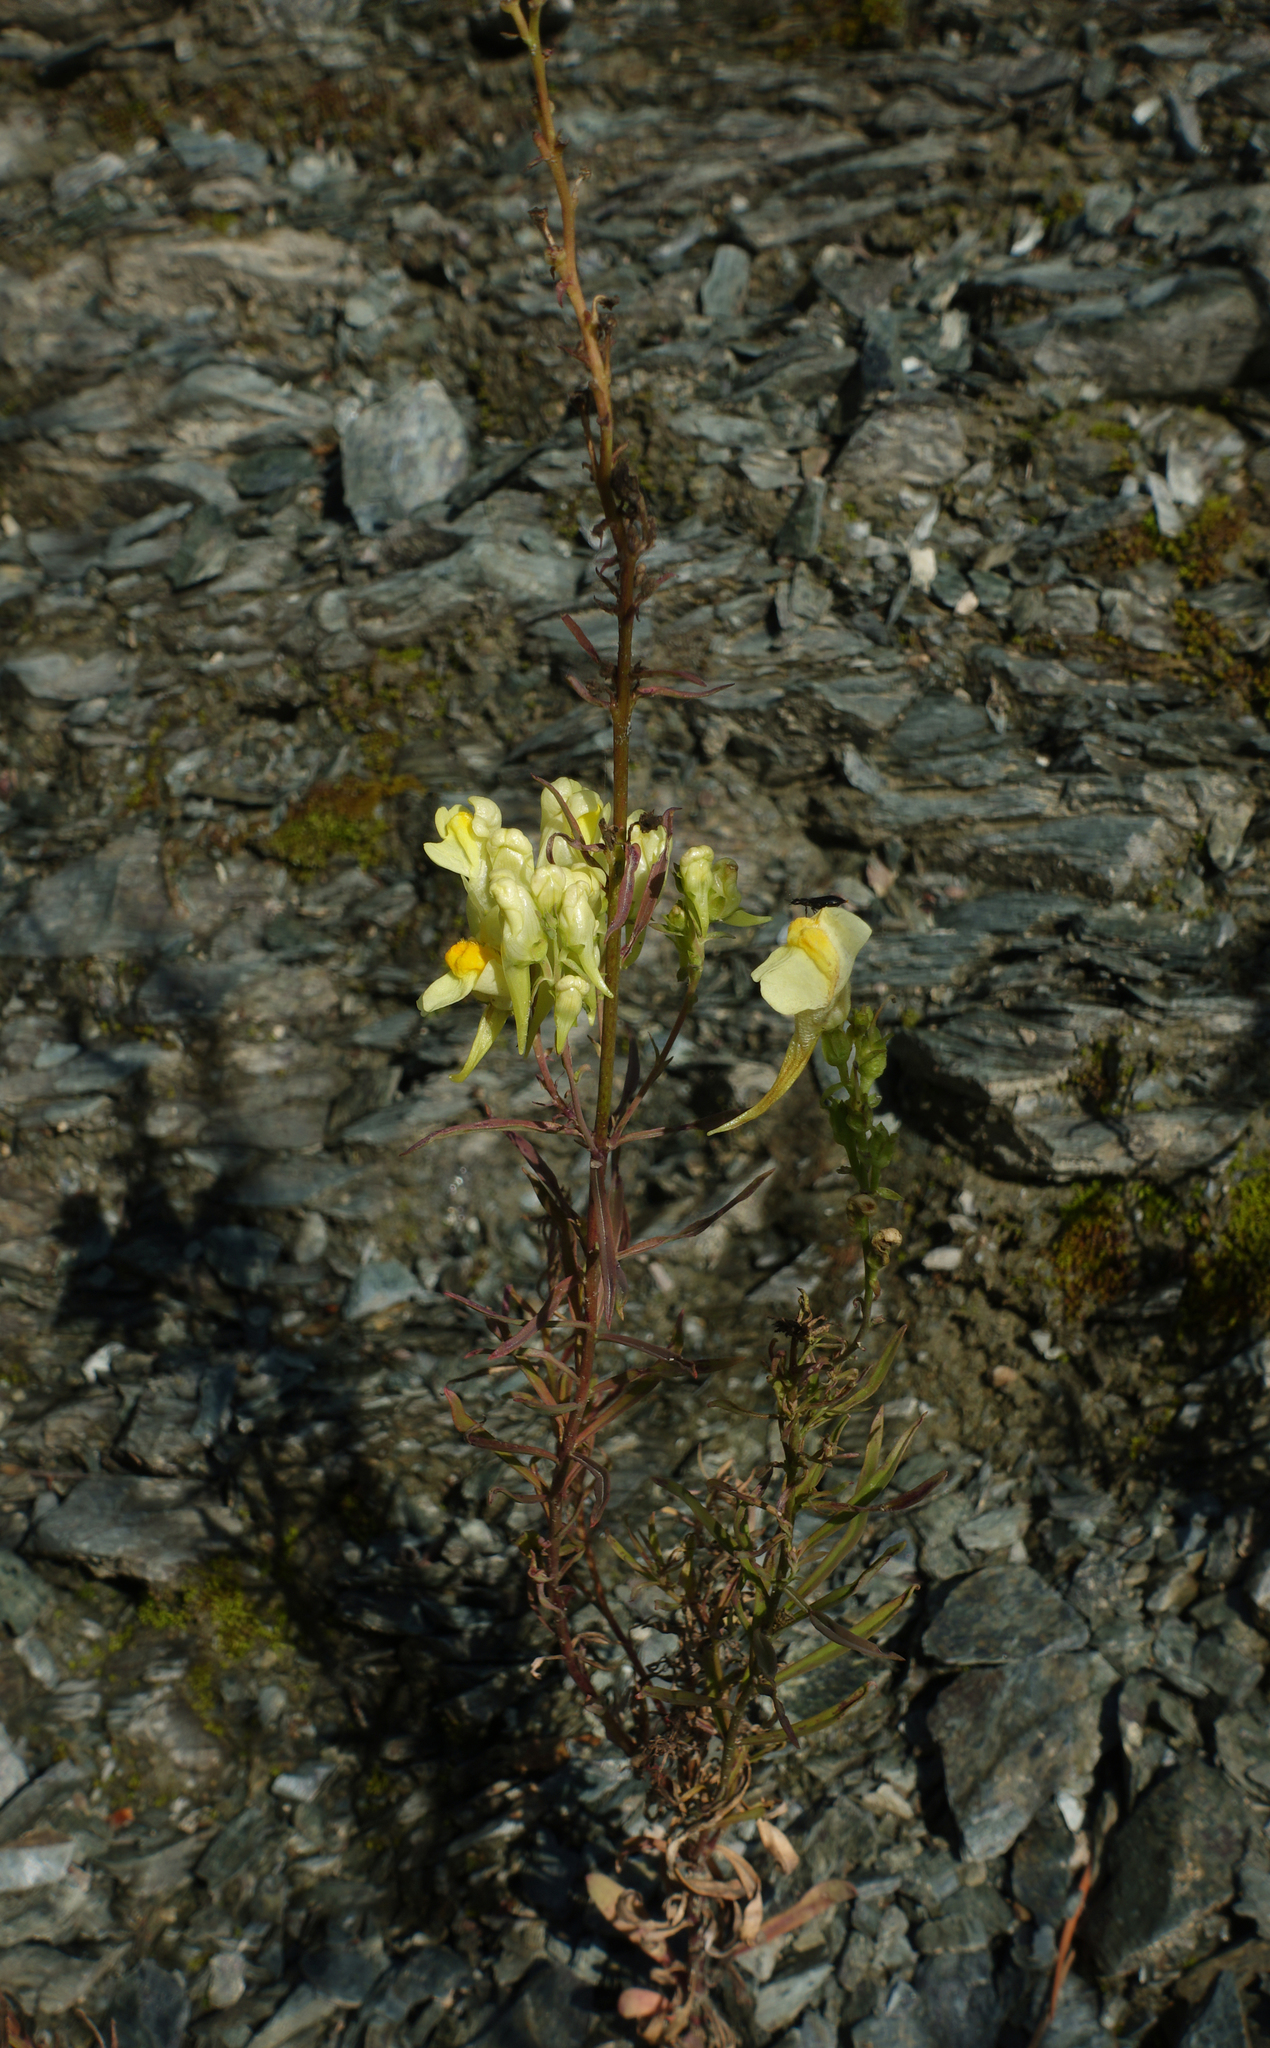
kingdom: Plantae
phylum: Tracheophyta
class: Magnoliopsida
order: Lamiales
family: Plantaginaceae
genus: Linaria
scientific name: Linaria vulgaris
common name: Butter and eggs
